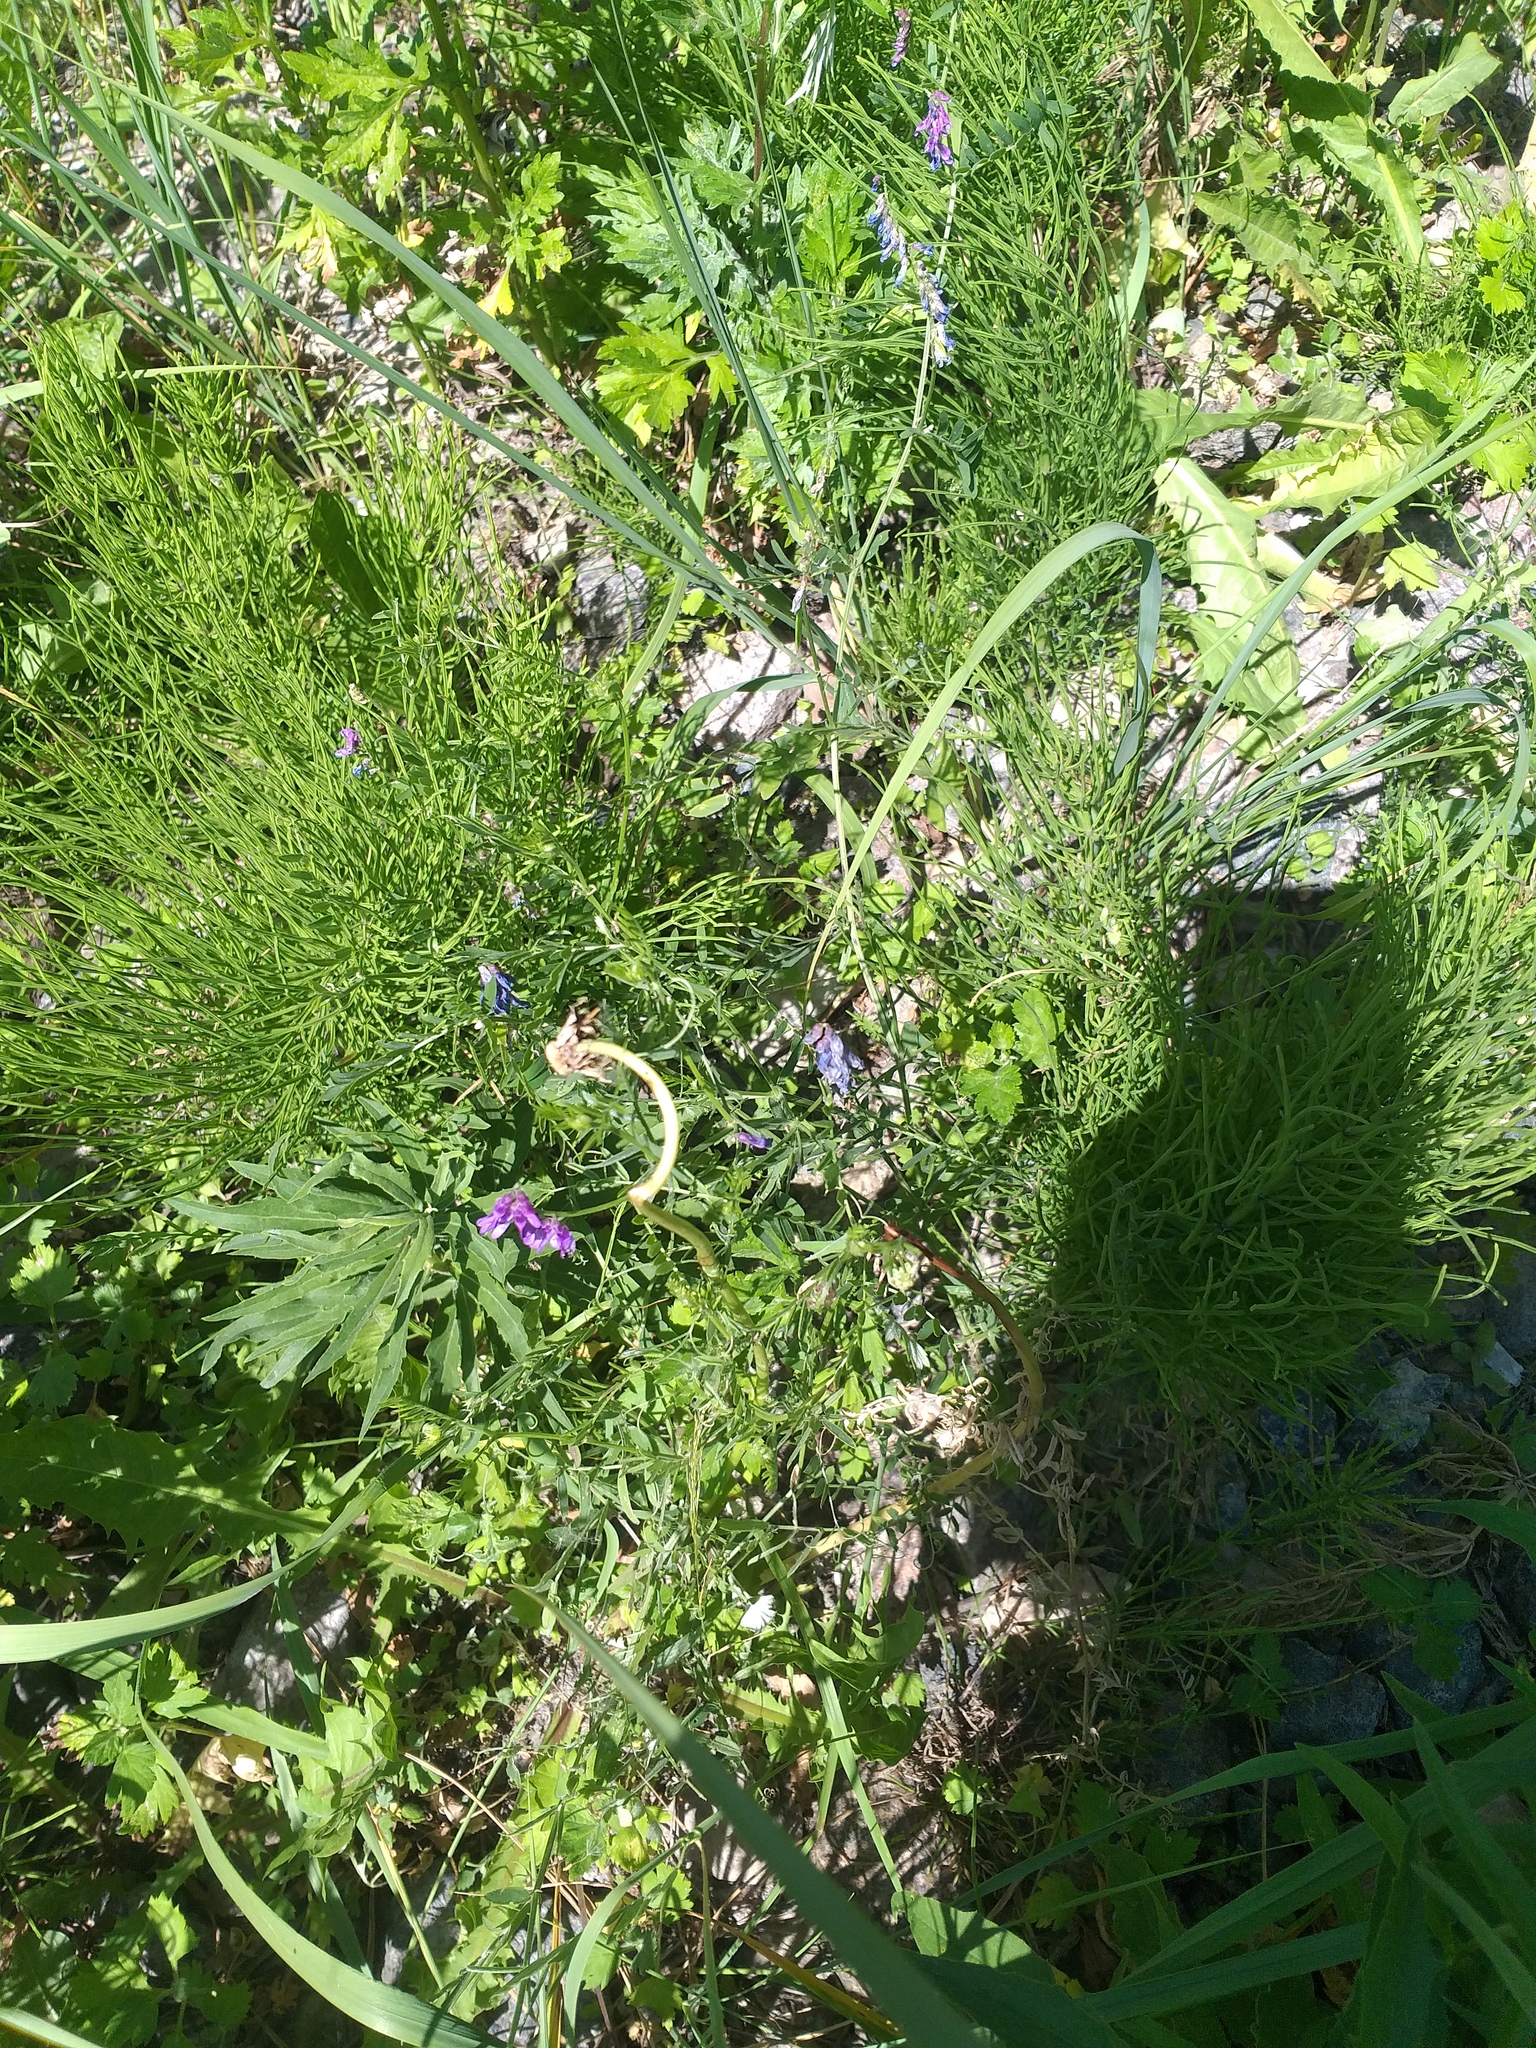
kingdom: Plantae
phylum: Tracheophyta
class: Magnoliopsida
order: Fabales
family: Fabaceae
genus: Vicia
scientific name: Vicia cracca
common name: Bird vetch
